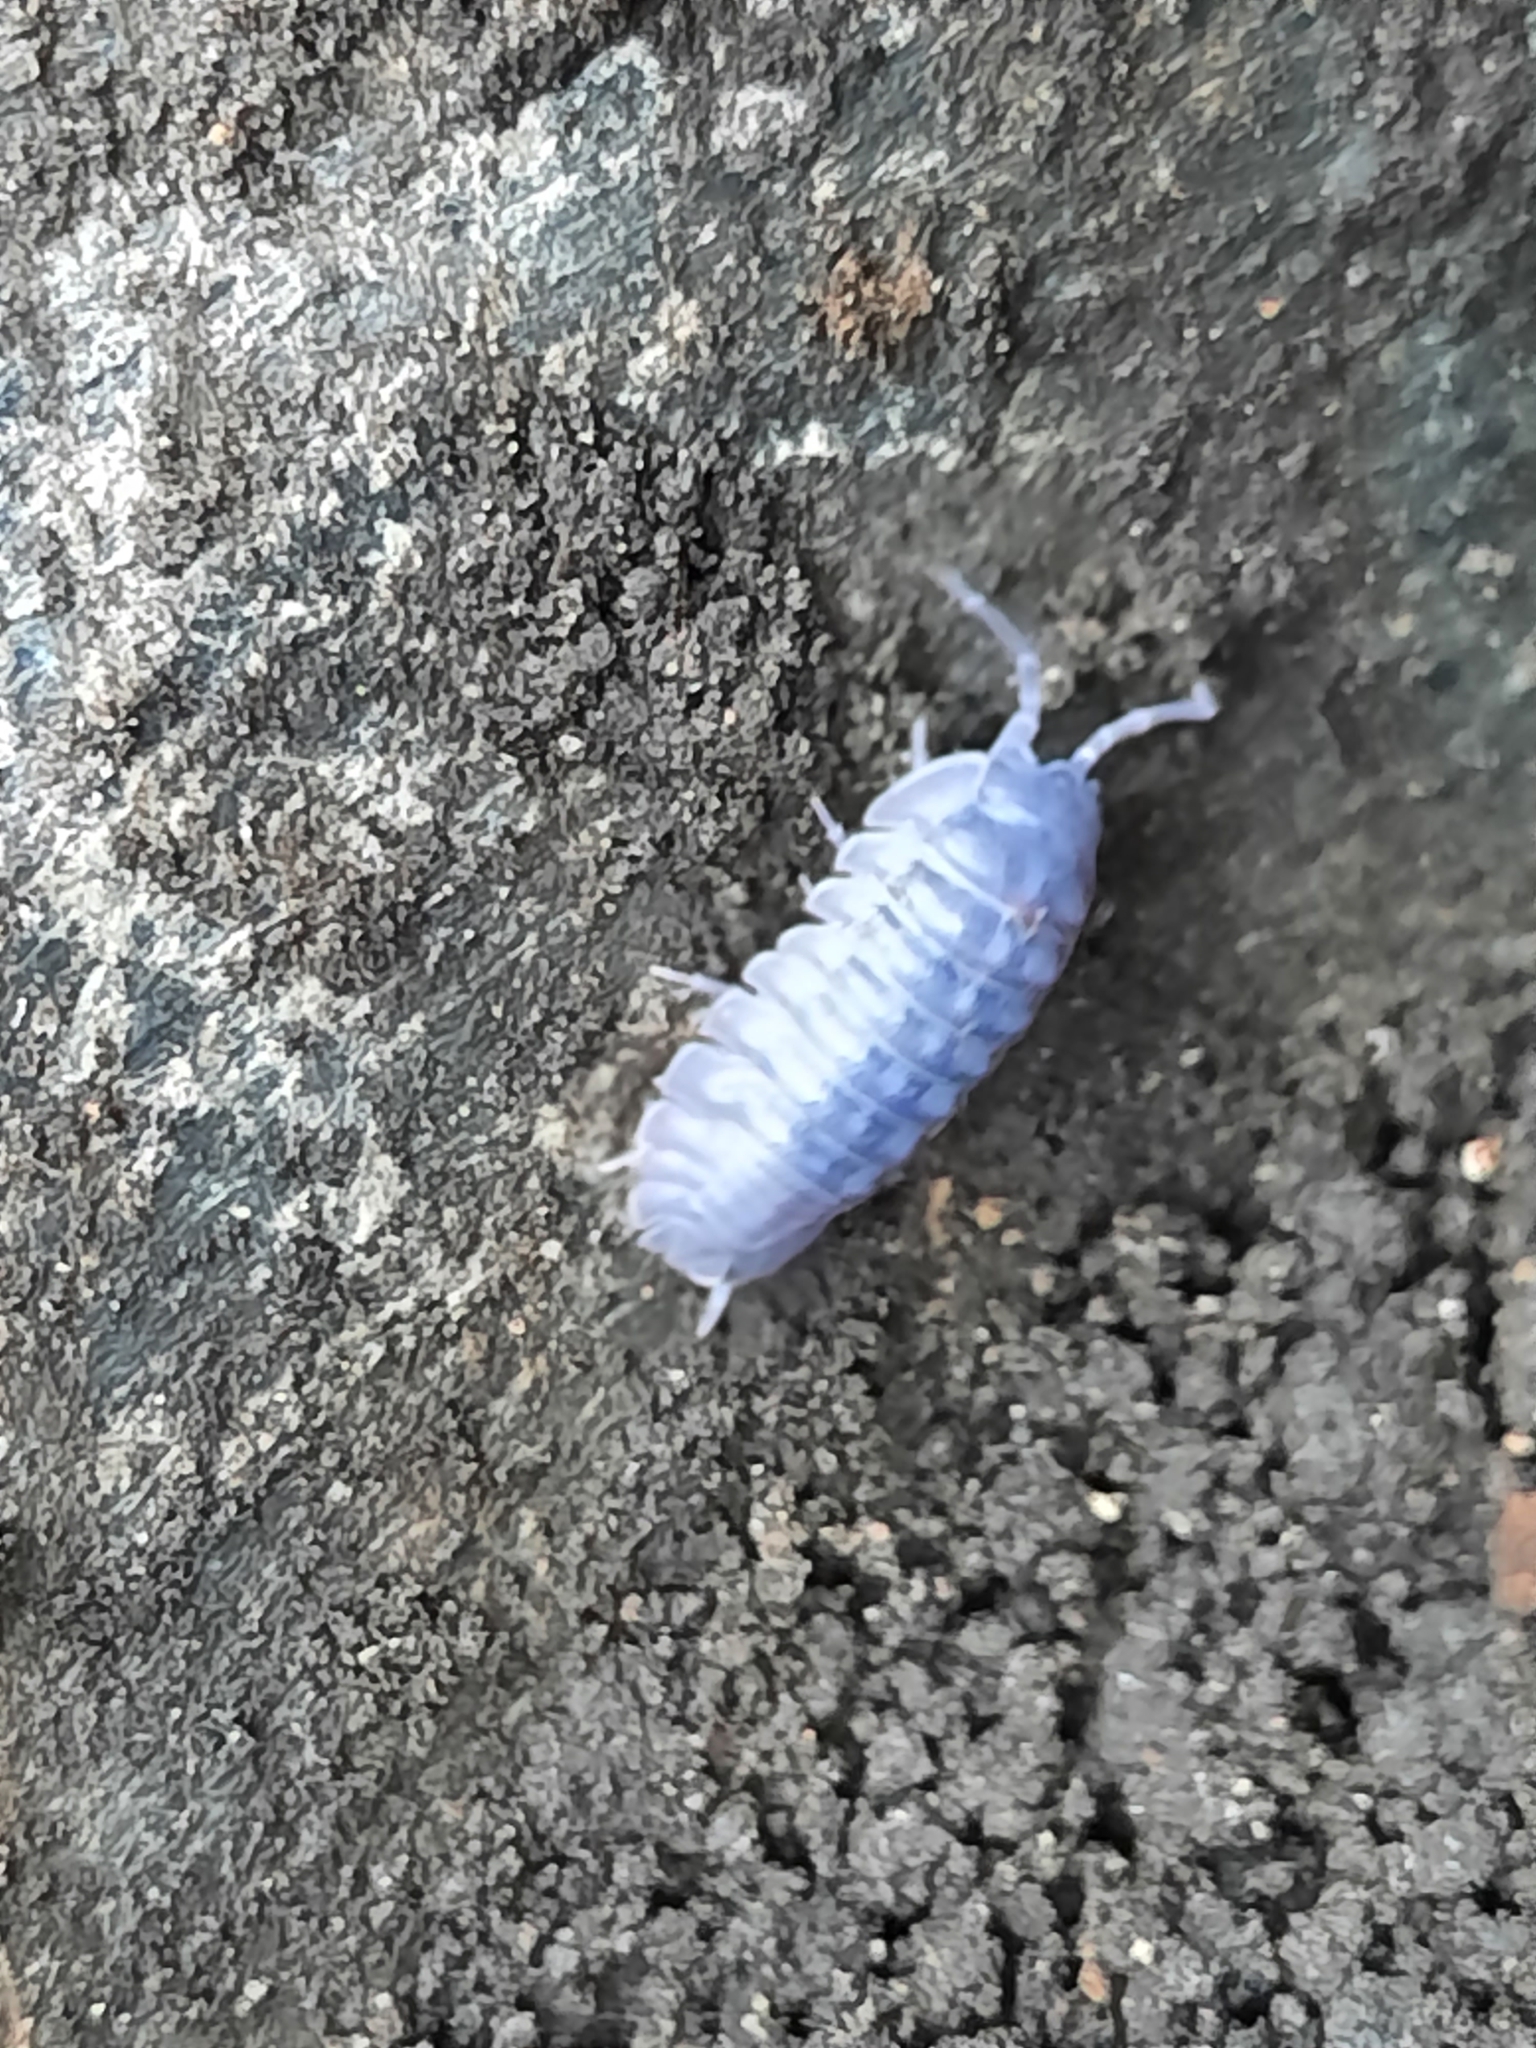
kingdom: Animalia
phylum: Arthropoda
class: Malacostraca
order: Isopoda
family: Armadillidiidae
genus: Armadillidium
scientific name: Armadillidium nasatum
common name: Isopod
